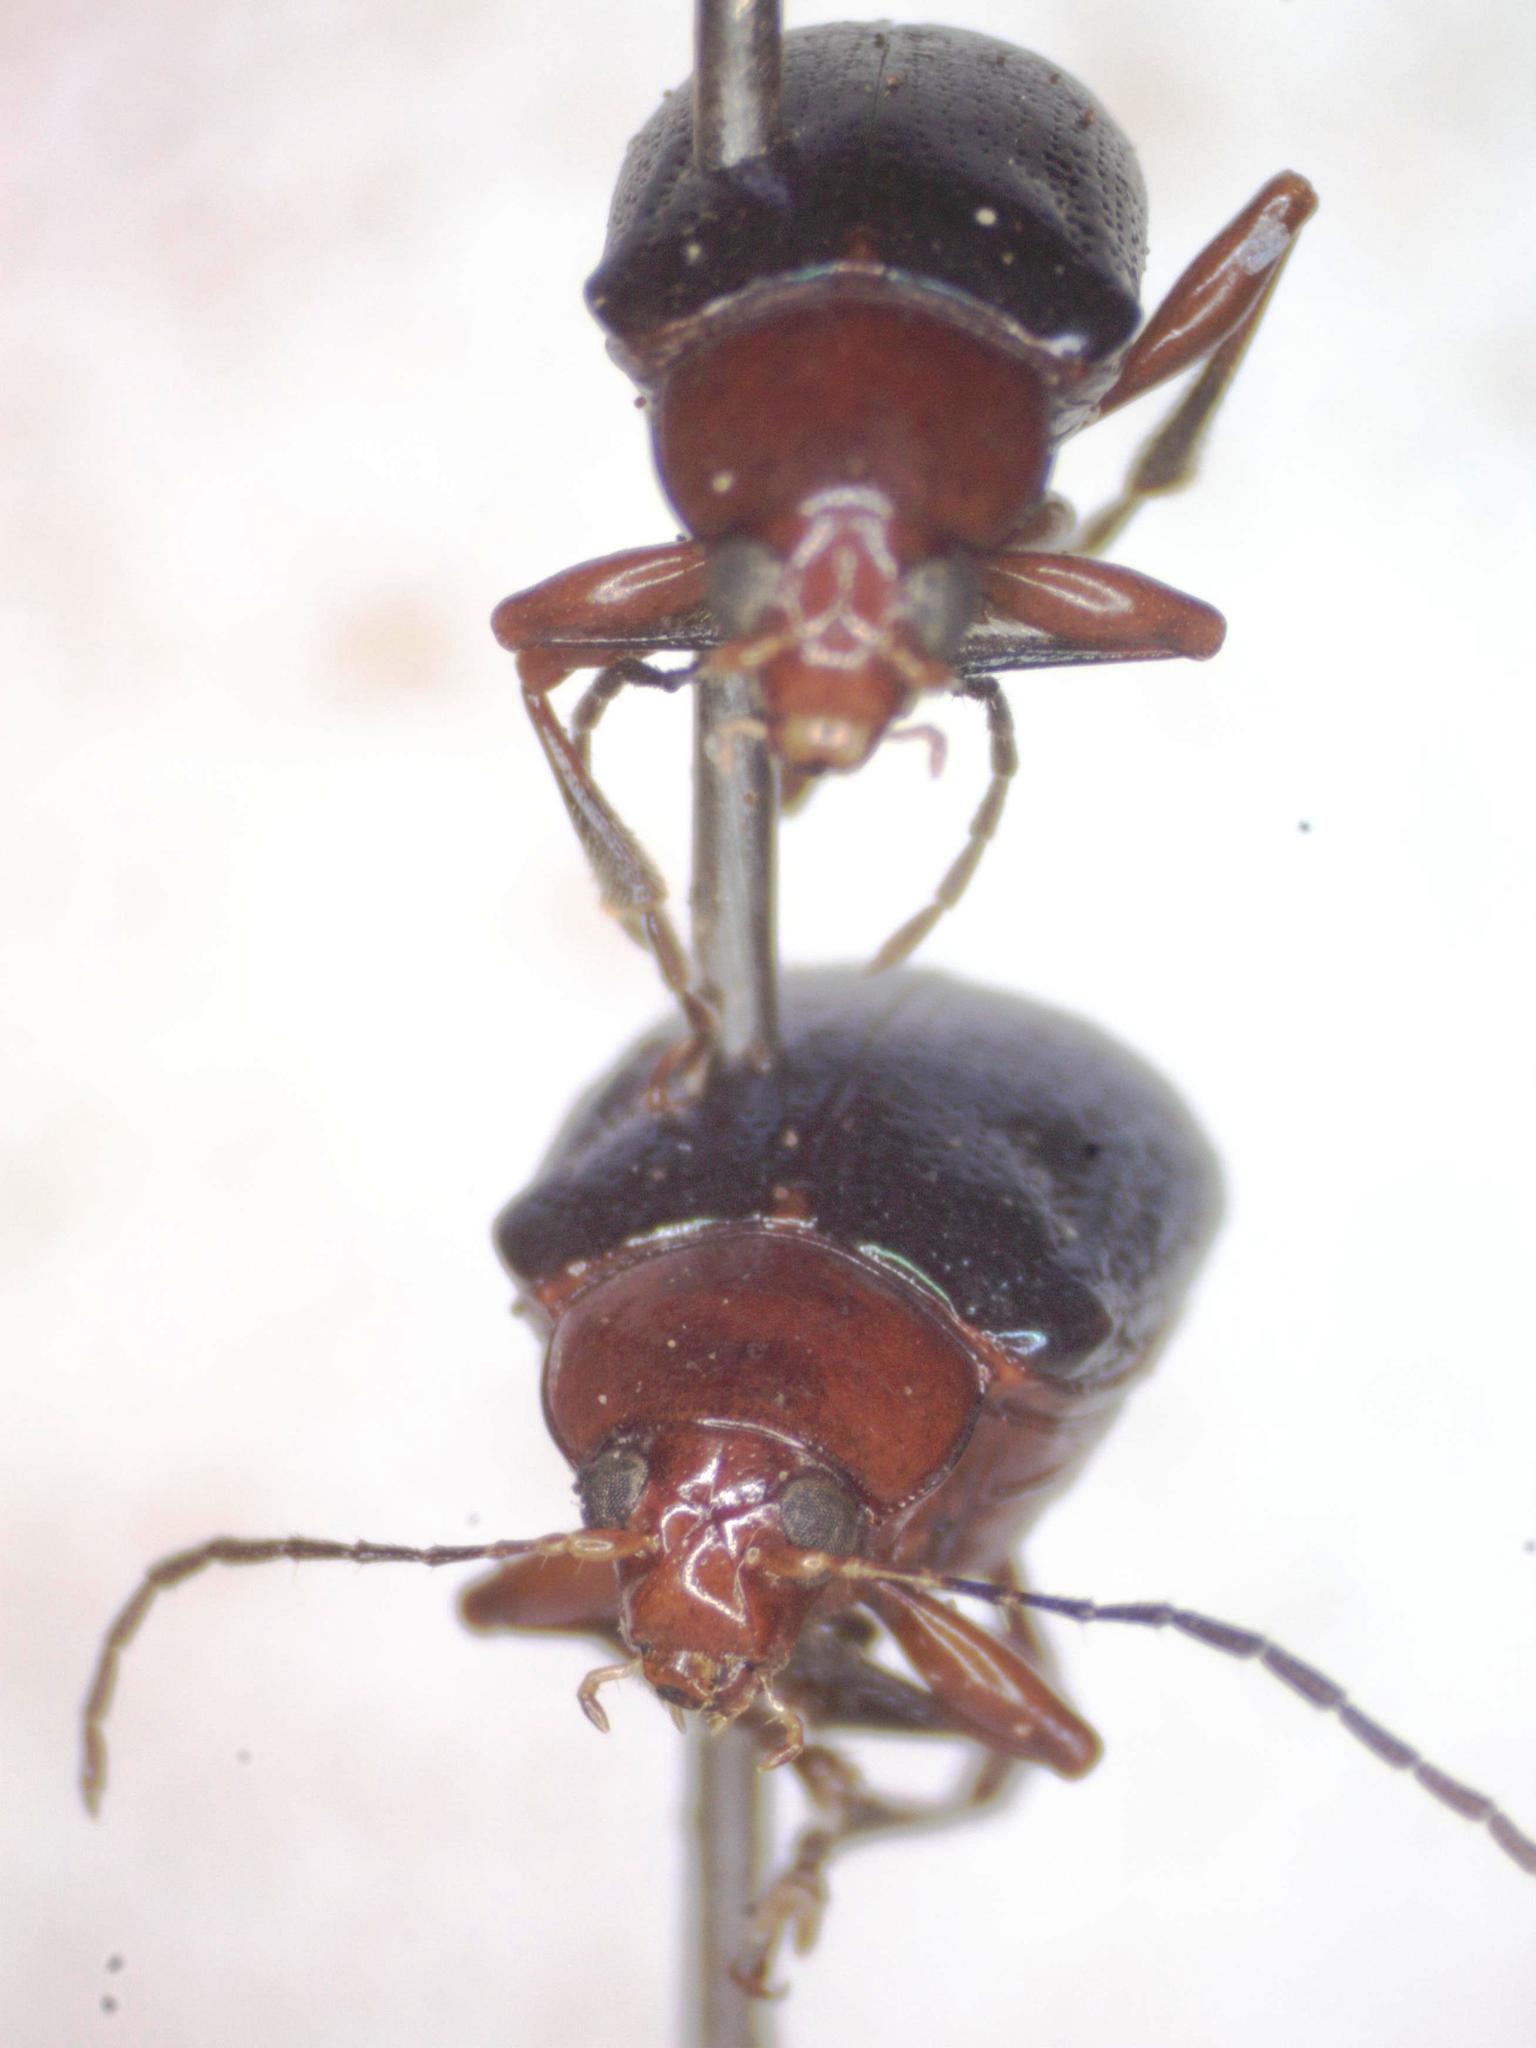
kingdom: Animalia
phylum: Arthropoda
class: Insecta
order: Coleoptera
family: Chrysomelidae
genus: Chalcophana
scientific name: Chalcophana
